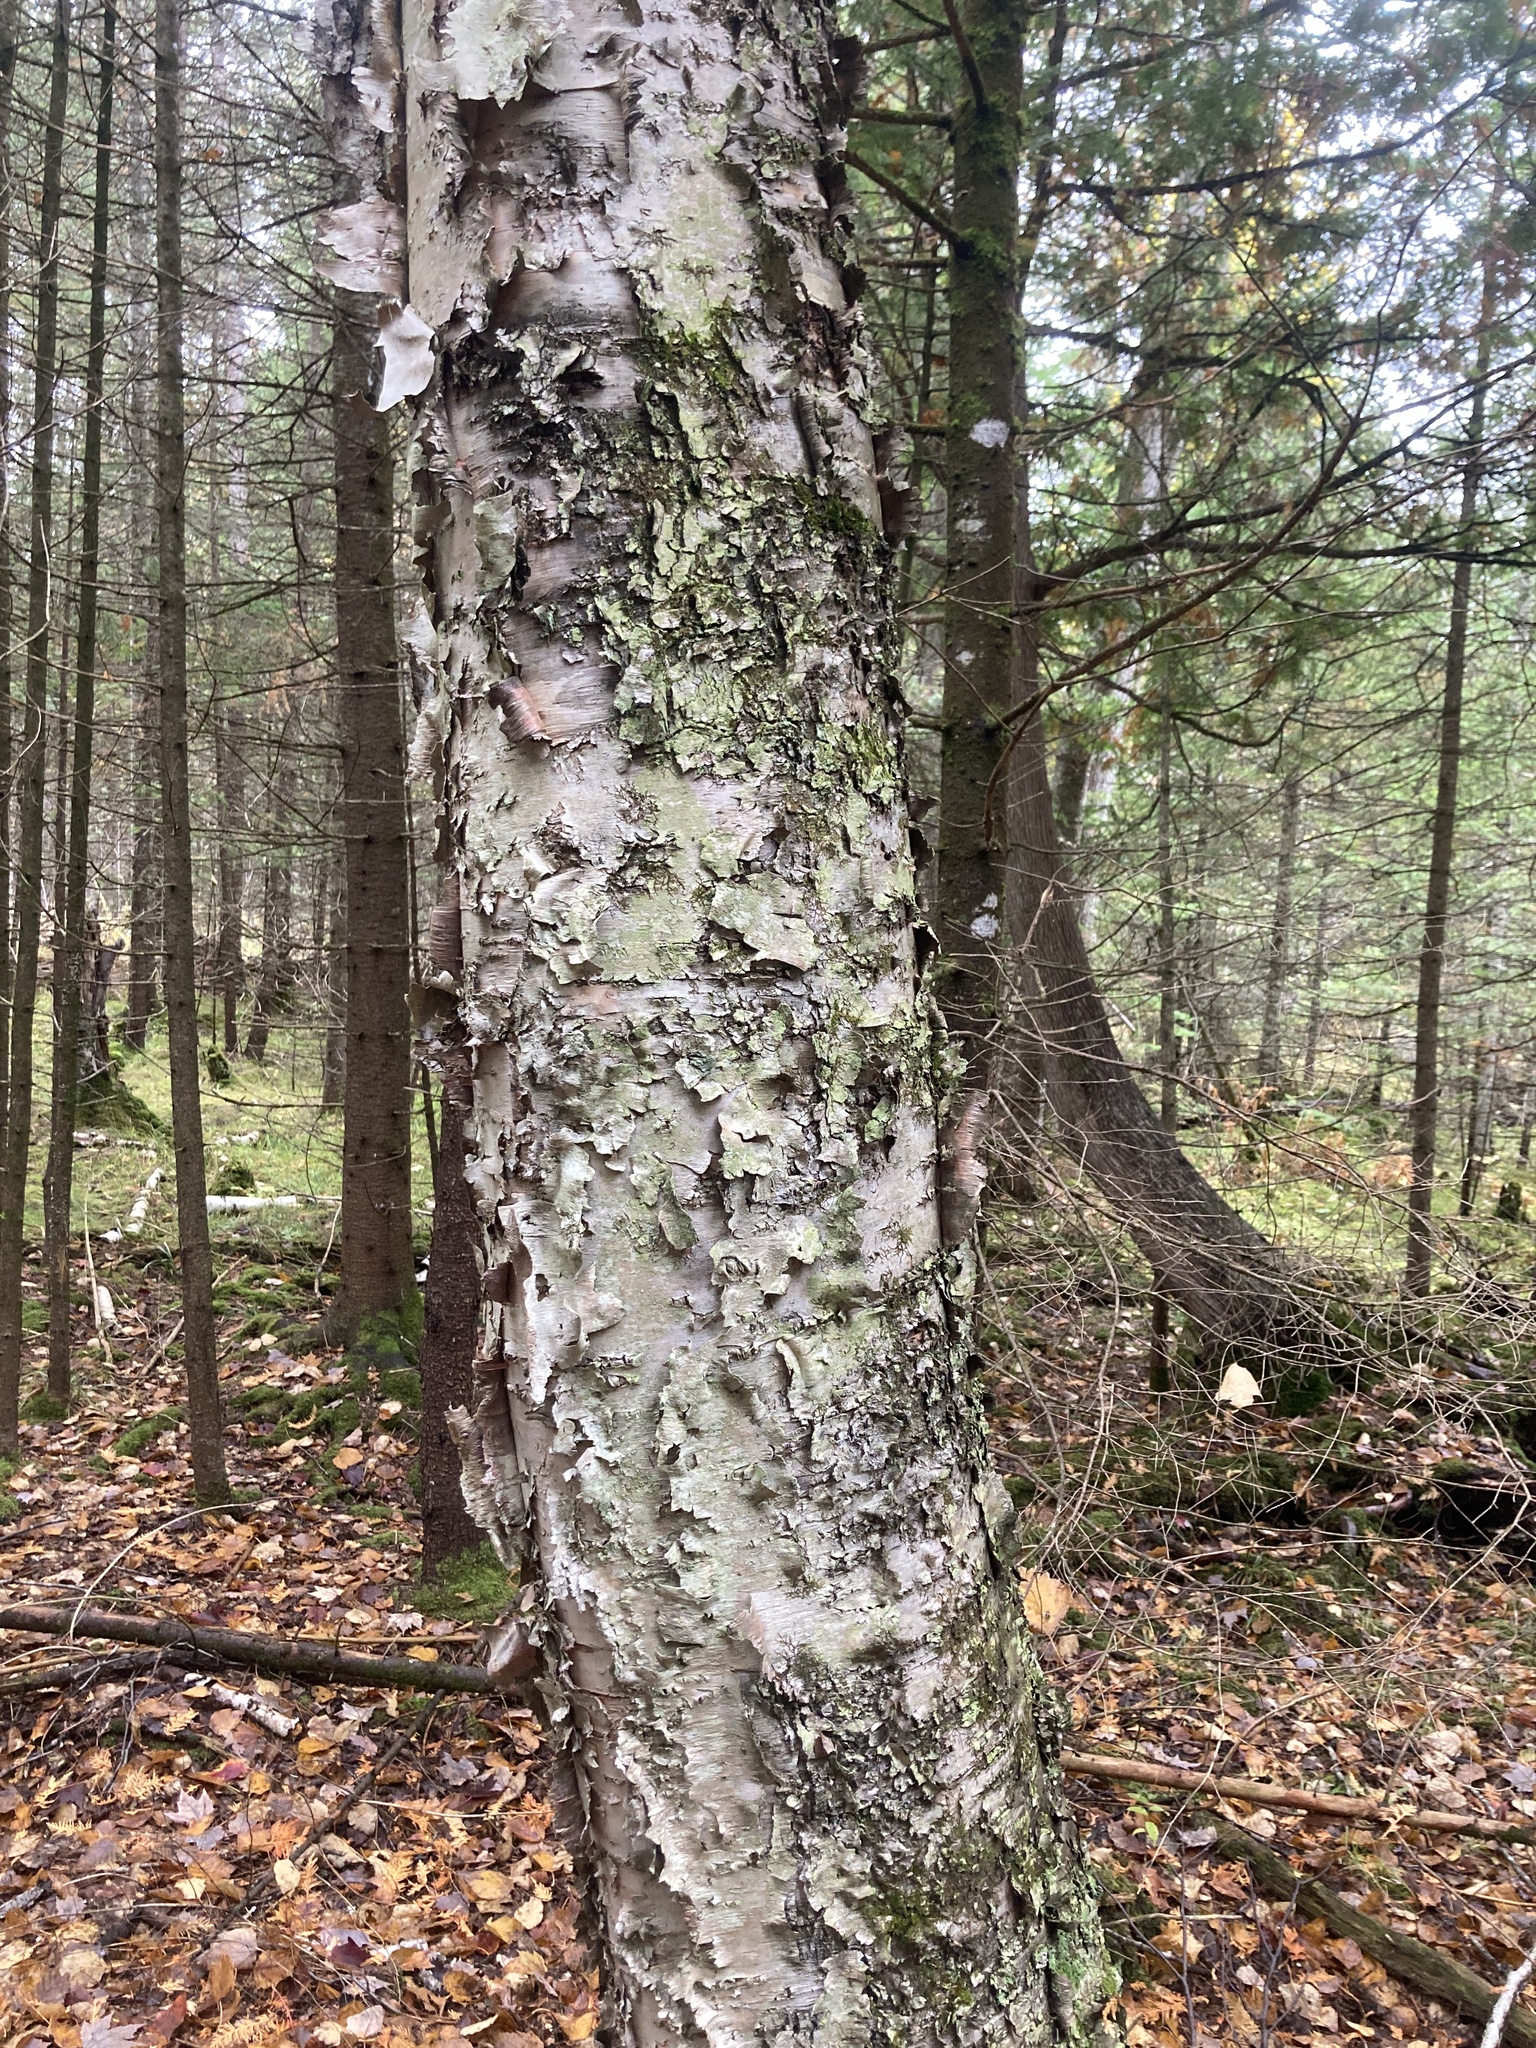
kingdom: Plantae
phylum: Tracheophyta
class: Magnoliopsida
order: Fagales
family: Betulaceae
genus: Betula
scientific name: Betula papyrifera
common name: Paper birch
